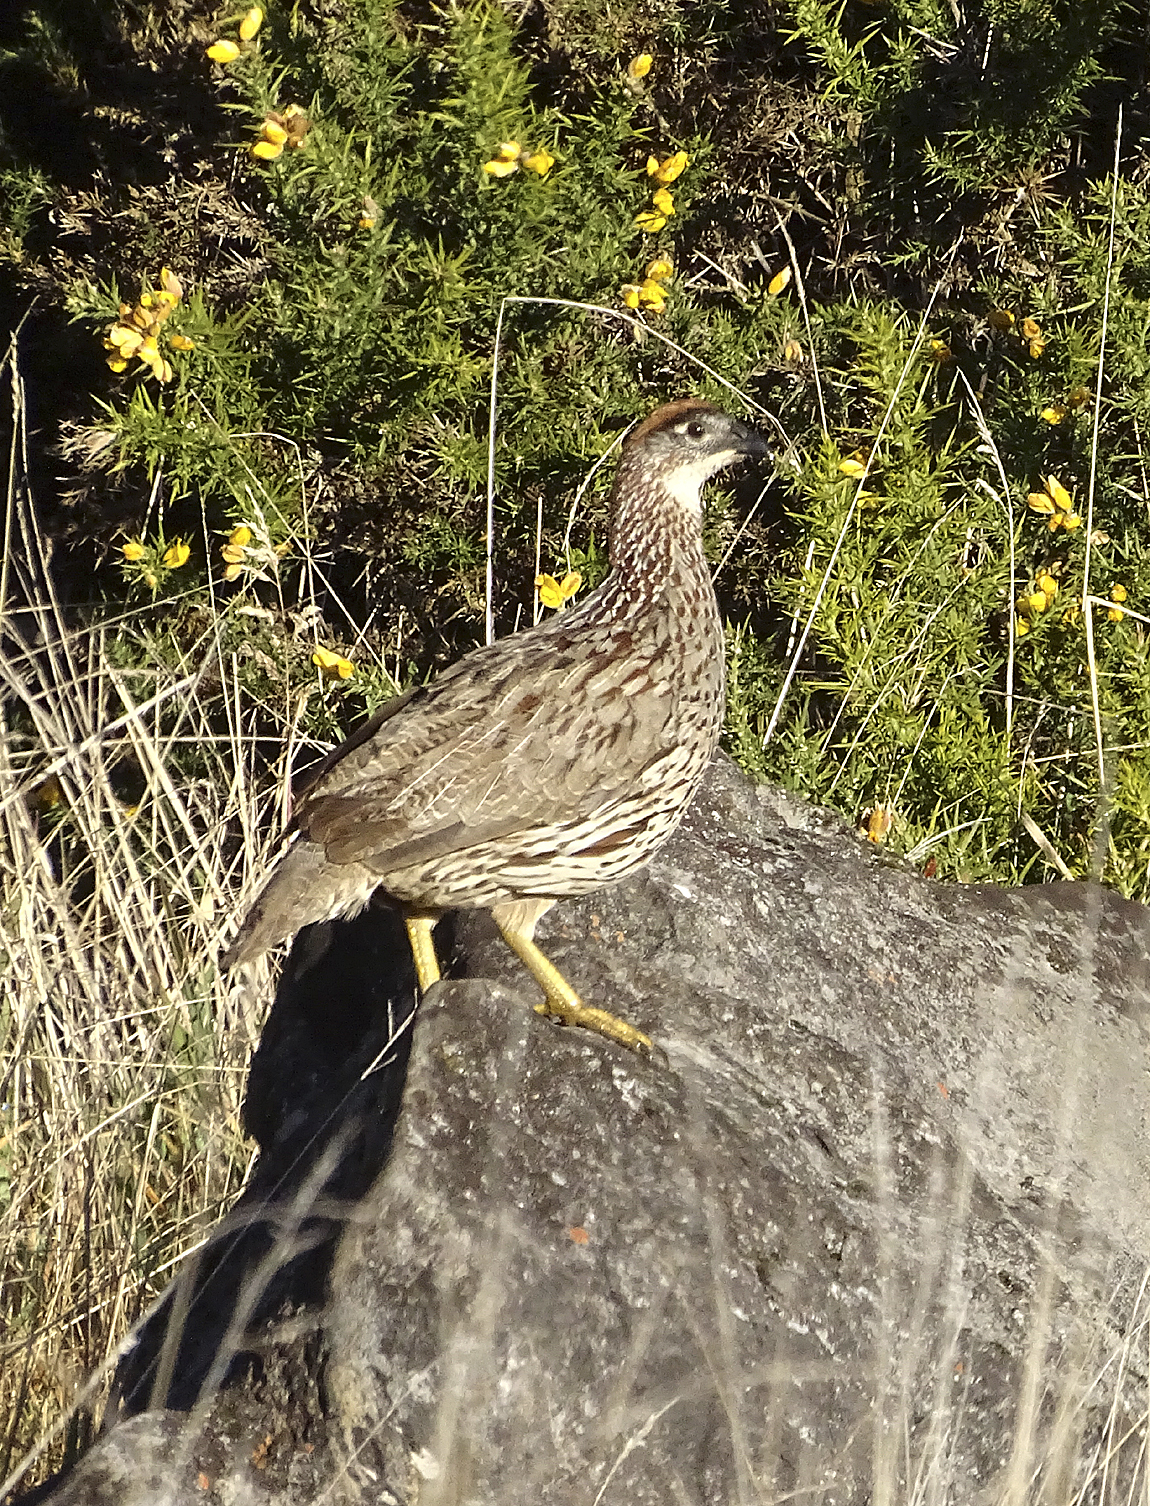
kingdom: Animalia
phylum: Chordata
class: Aves
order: Galliformes
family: Phasianidae
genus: Pternistis
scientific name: Pternistis erckelii
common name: Erckel's francolin
